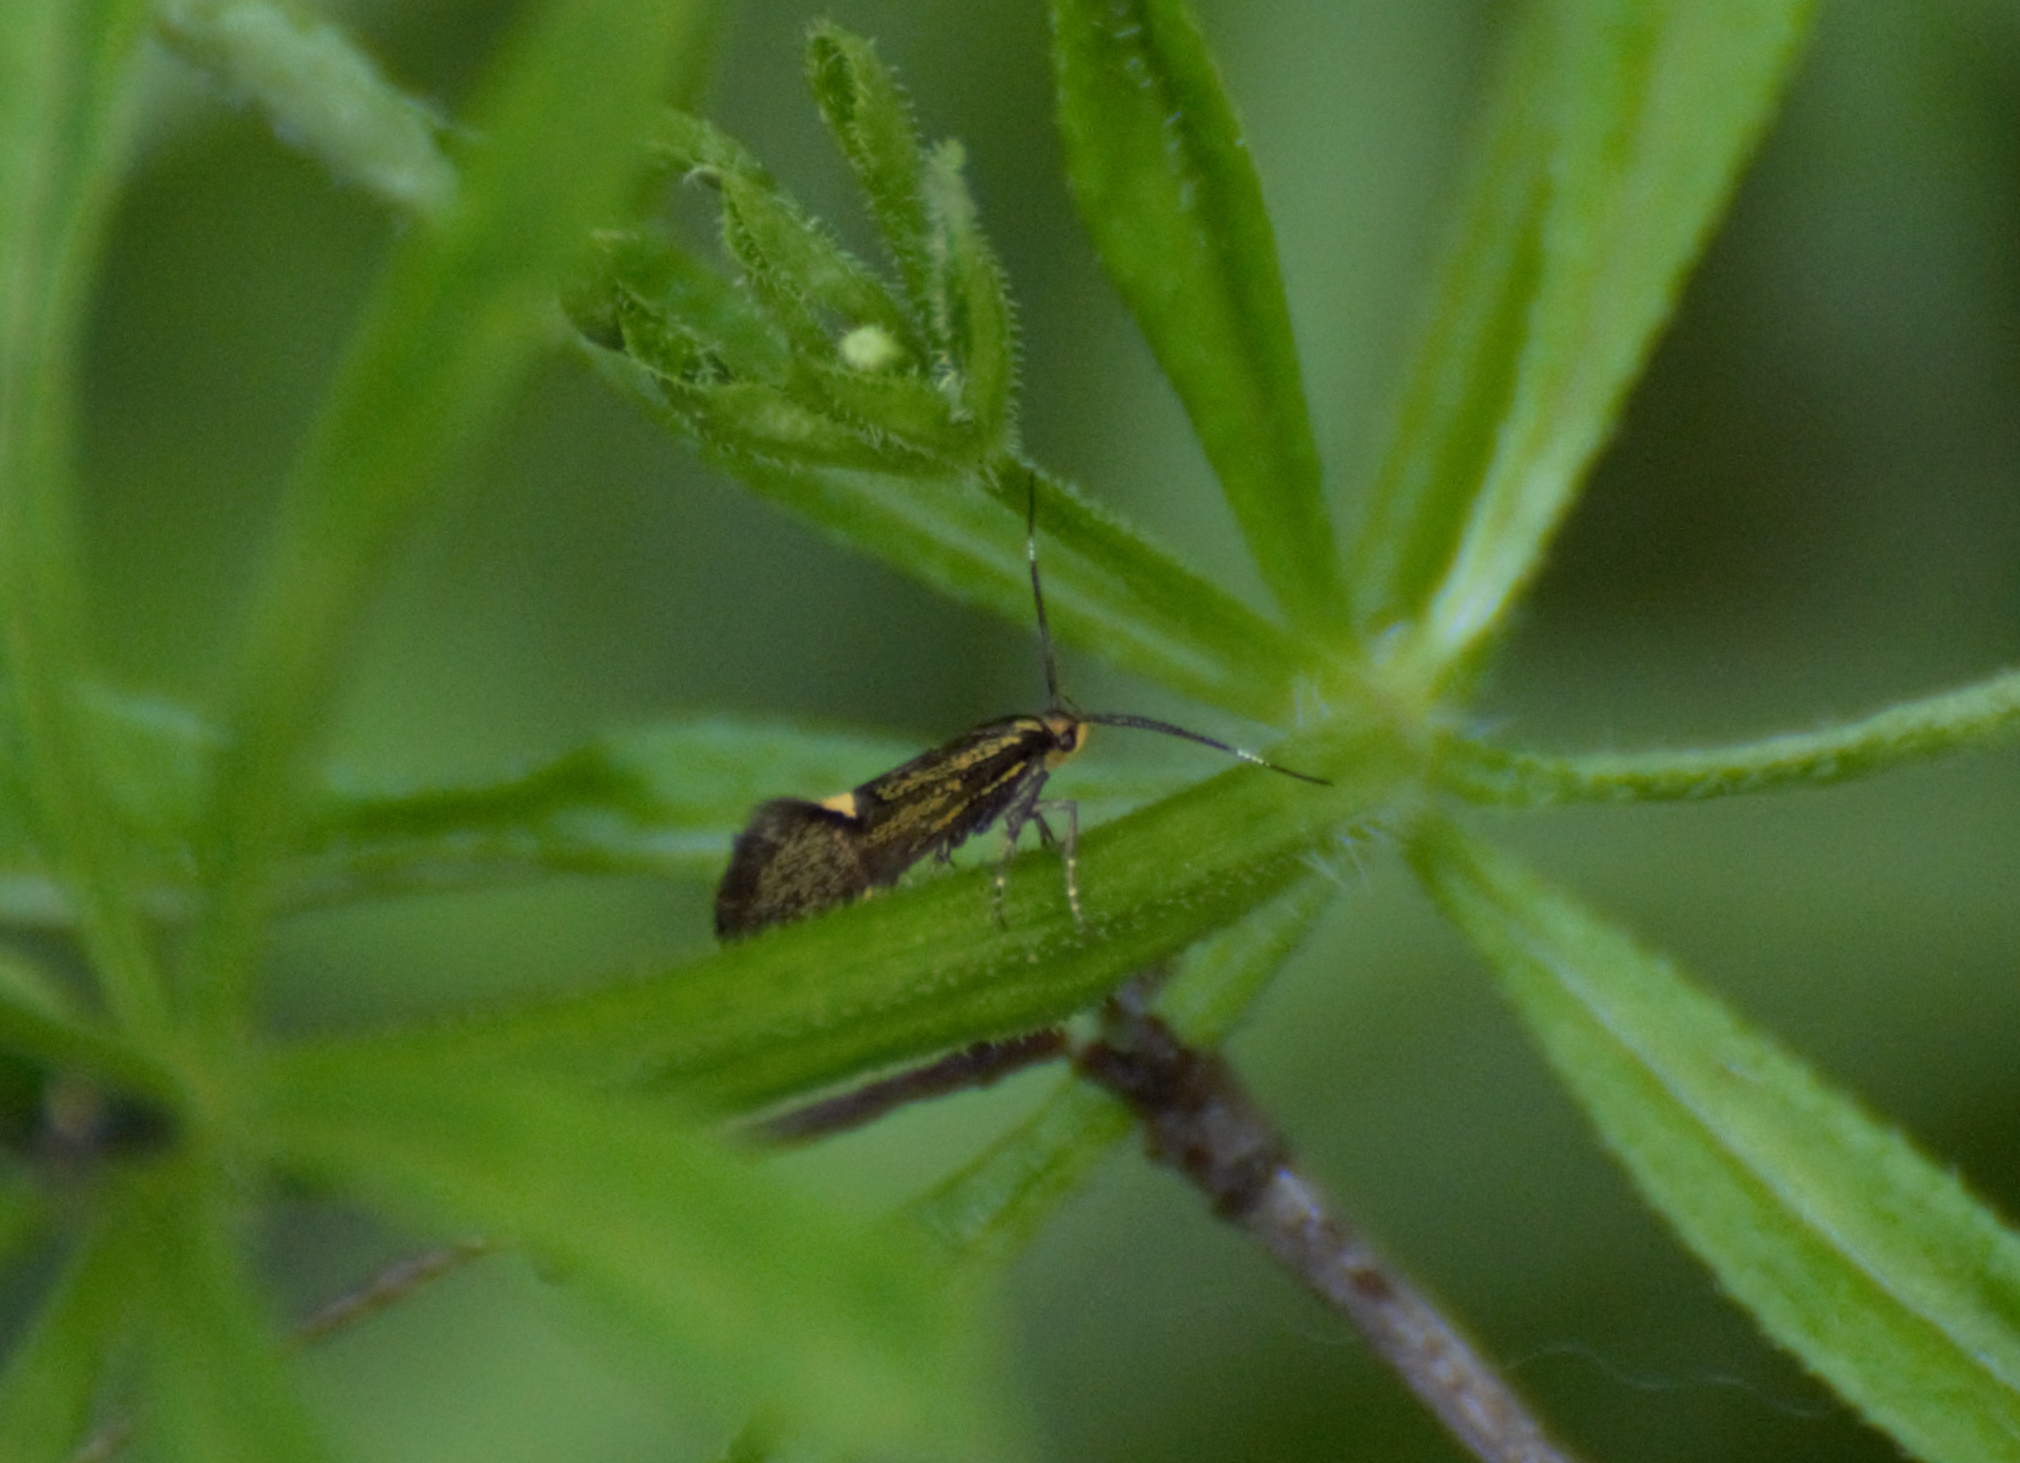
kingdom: Animalia
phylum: Arthropoda
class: Insecta
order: Lepidoptera
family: Oecophoridae
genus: Dafa
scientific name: Dafa Esperia sulphurella
